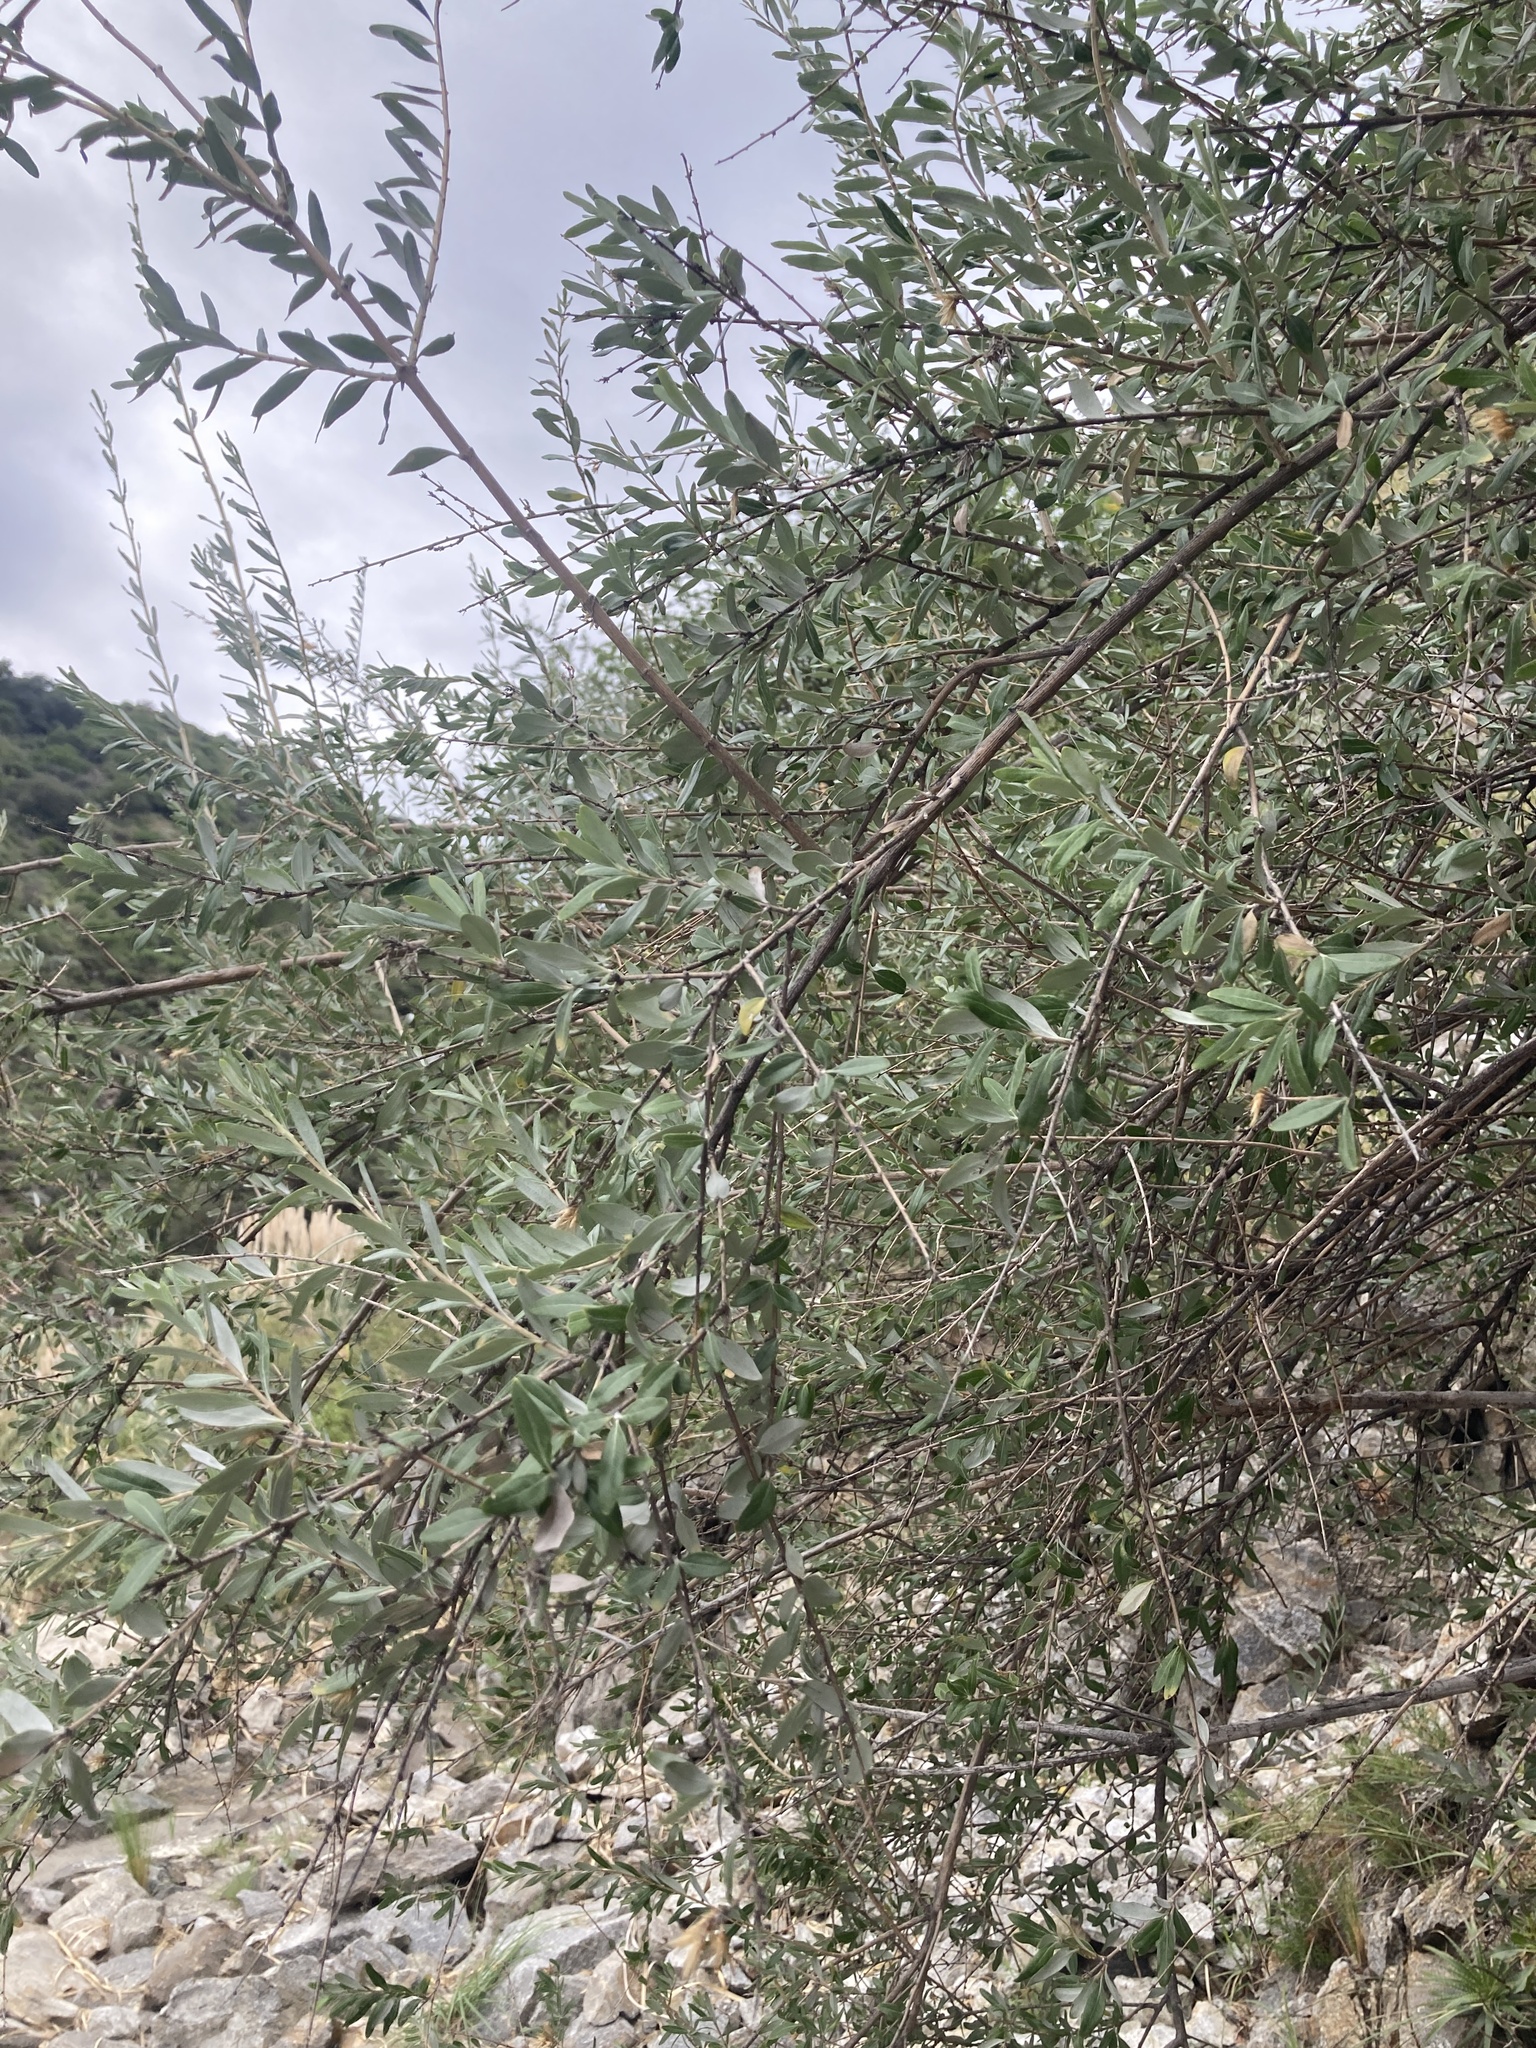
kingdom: Plantae
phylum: Tracheophyta
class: Magnoliopsida
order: Asterales
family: Asteraceae
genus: Hyaloseris
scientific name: Hyaloseris cinerea
